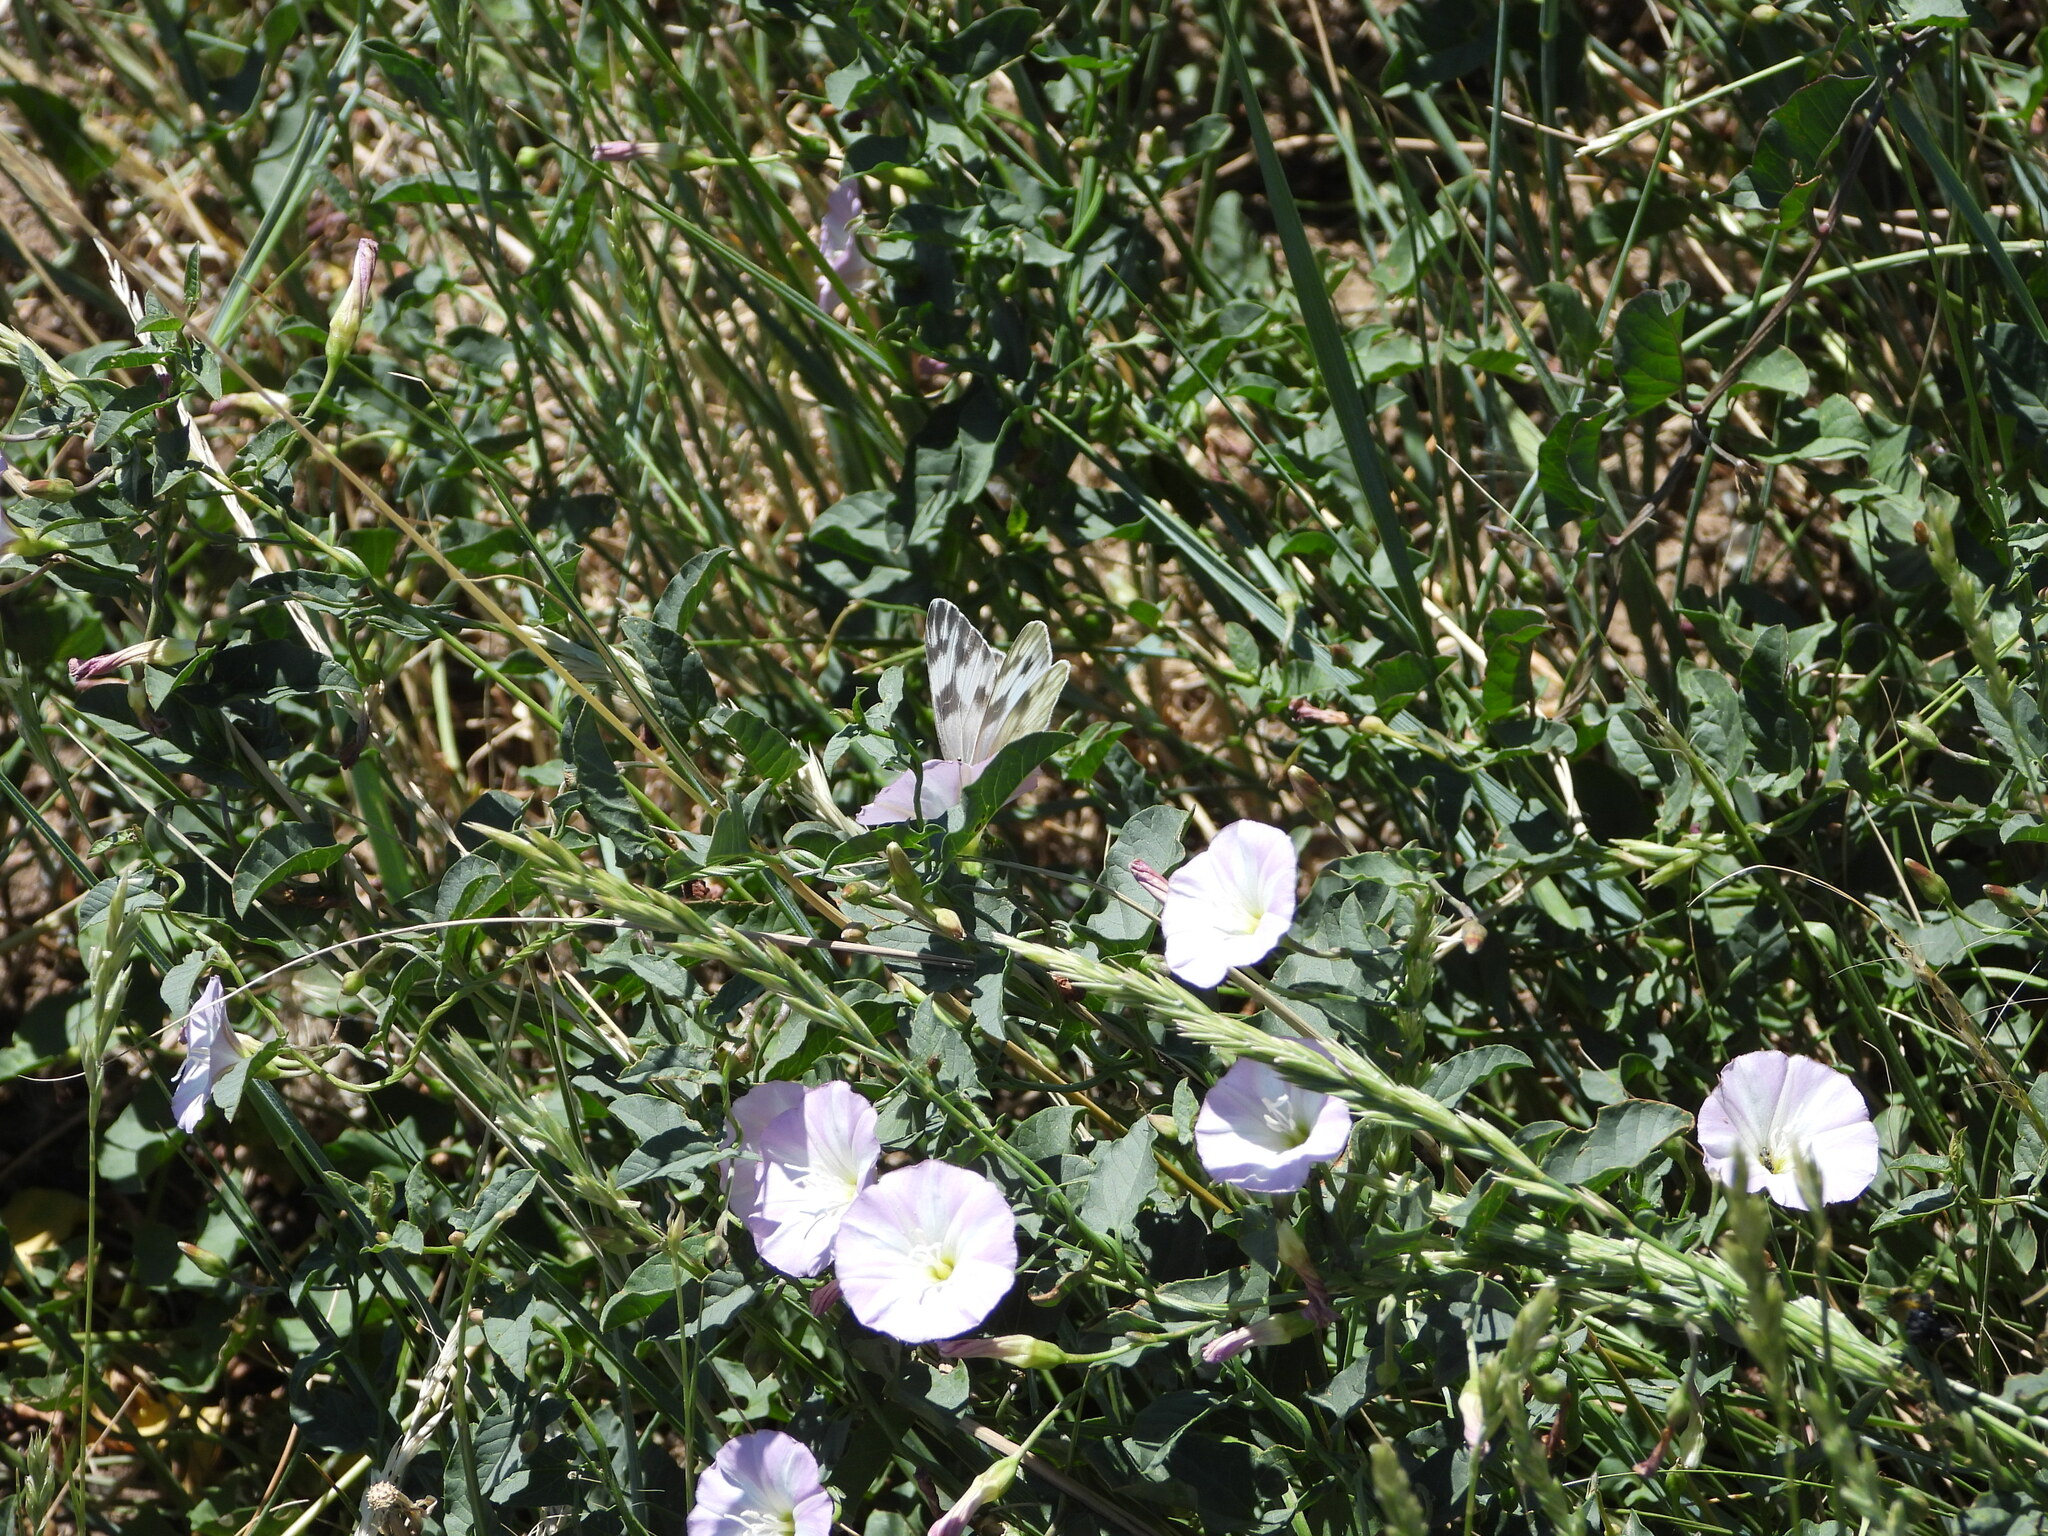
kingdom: Animalia
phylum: Arthropoda
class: Insecta
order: Lepidoptera
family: Pieridae
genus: Pontia
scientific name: Pontia protodice
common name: Checkered white
